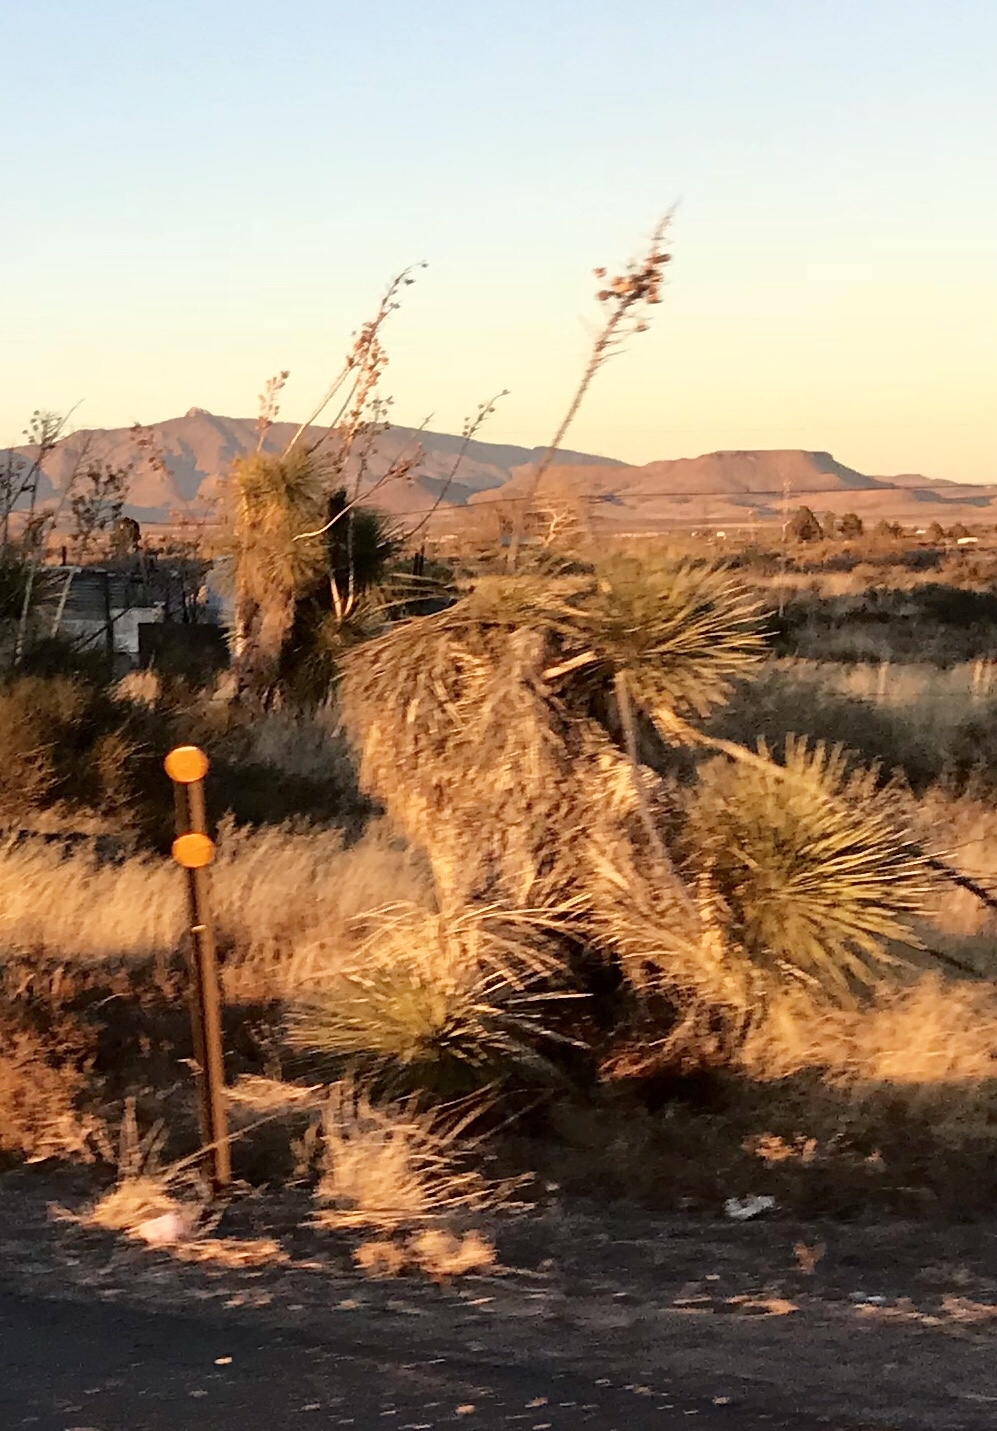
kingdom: Plantae
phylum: Tracheophyta
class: Liliopsida
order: Asparagales
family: Asparagaceae
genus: Yucca
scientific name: Yucca elata
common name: Palmella
